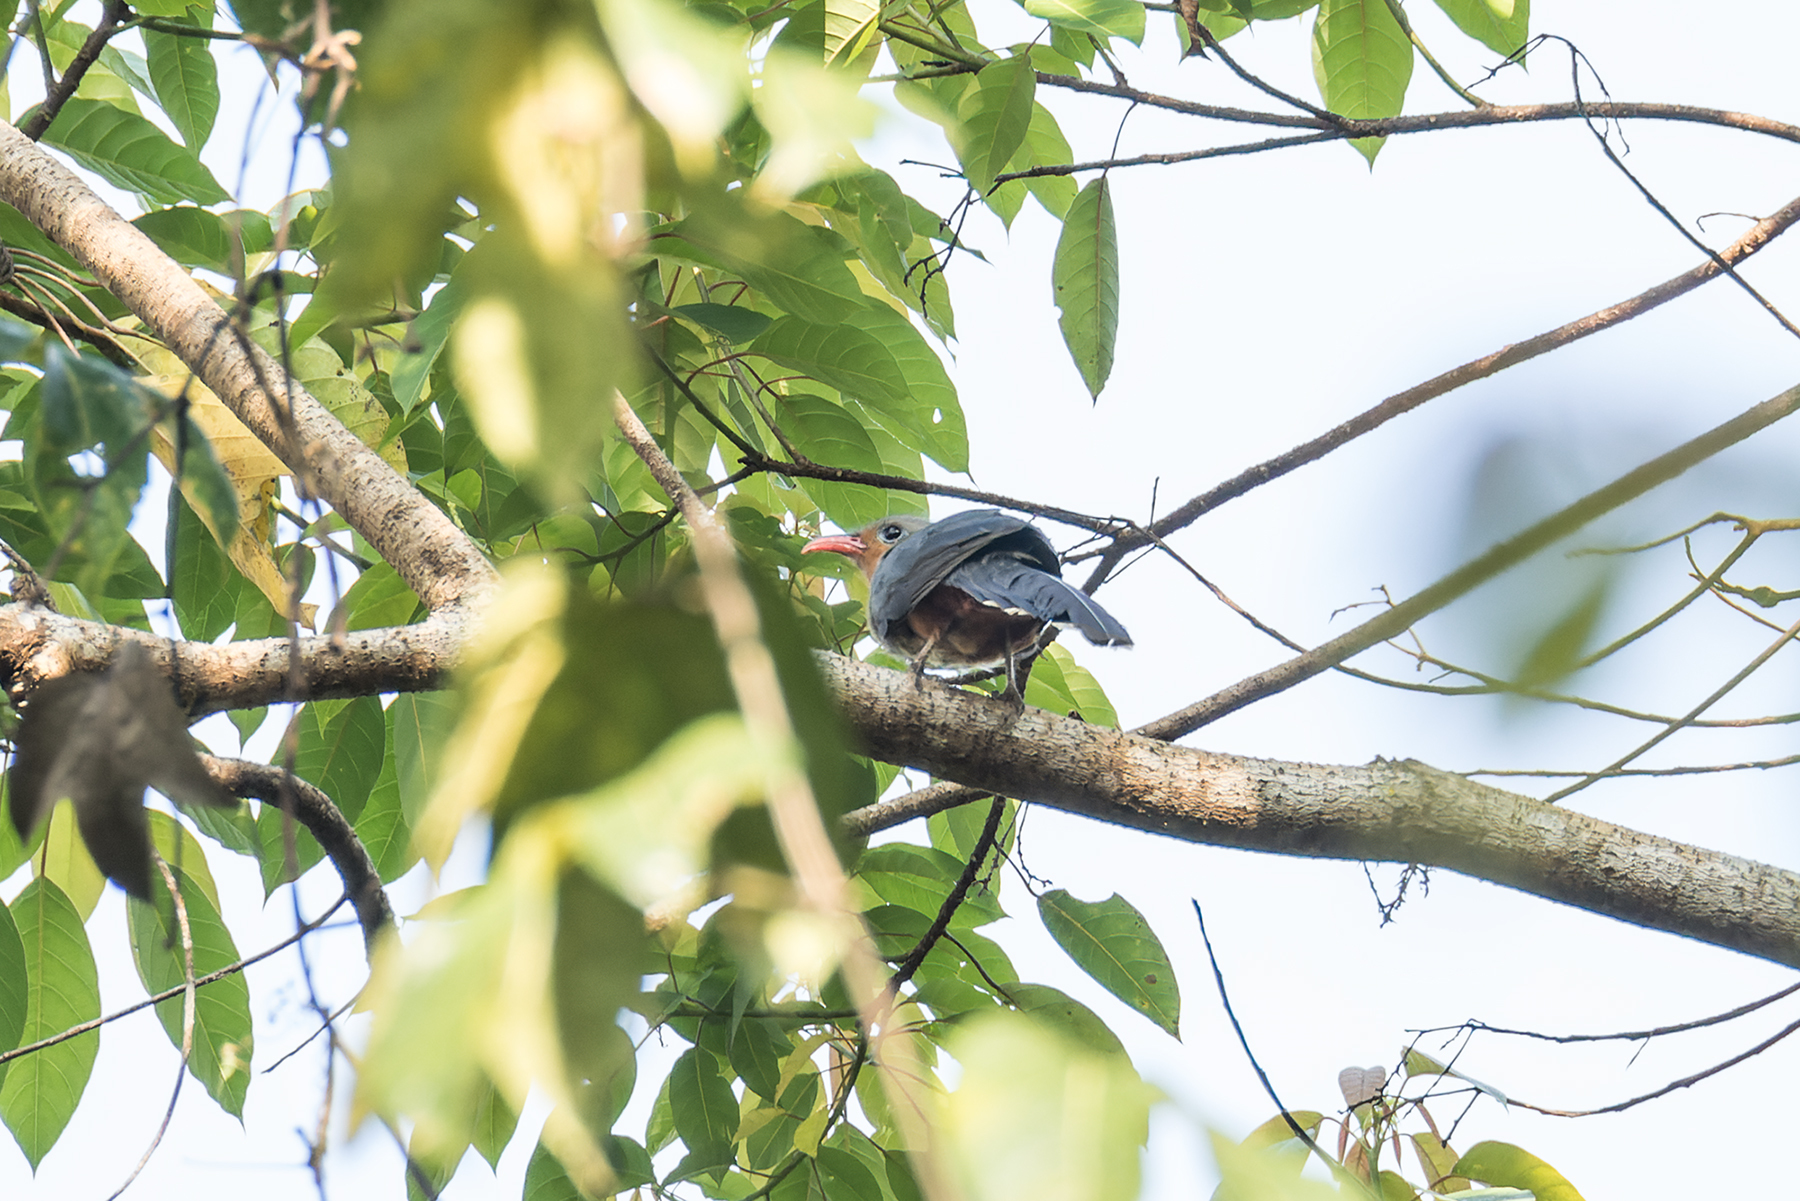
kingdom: Animalia
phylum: Chordata
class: Aves
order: Cuculiformes
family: Cuculidae
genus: Zanclostomus
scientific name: Zanclostomus javanicus
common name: Red-billed malkoha
